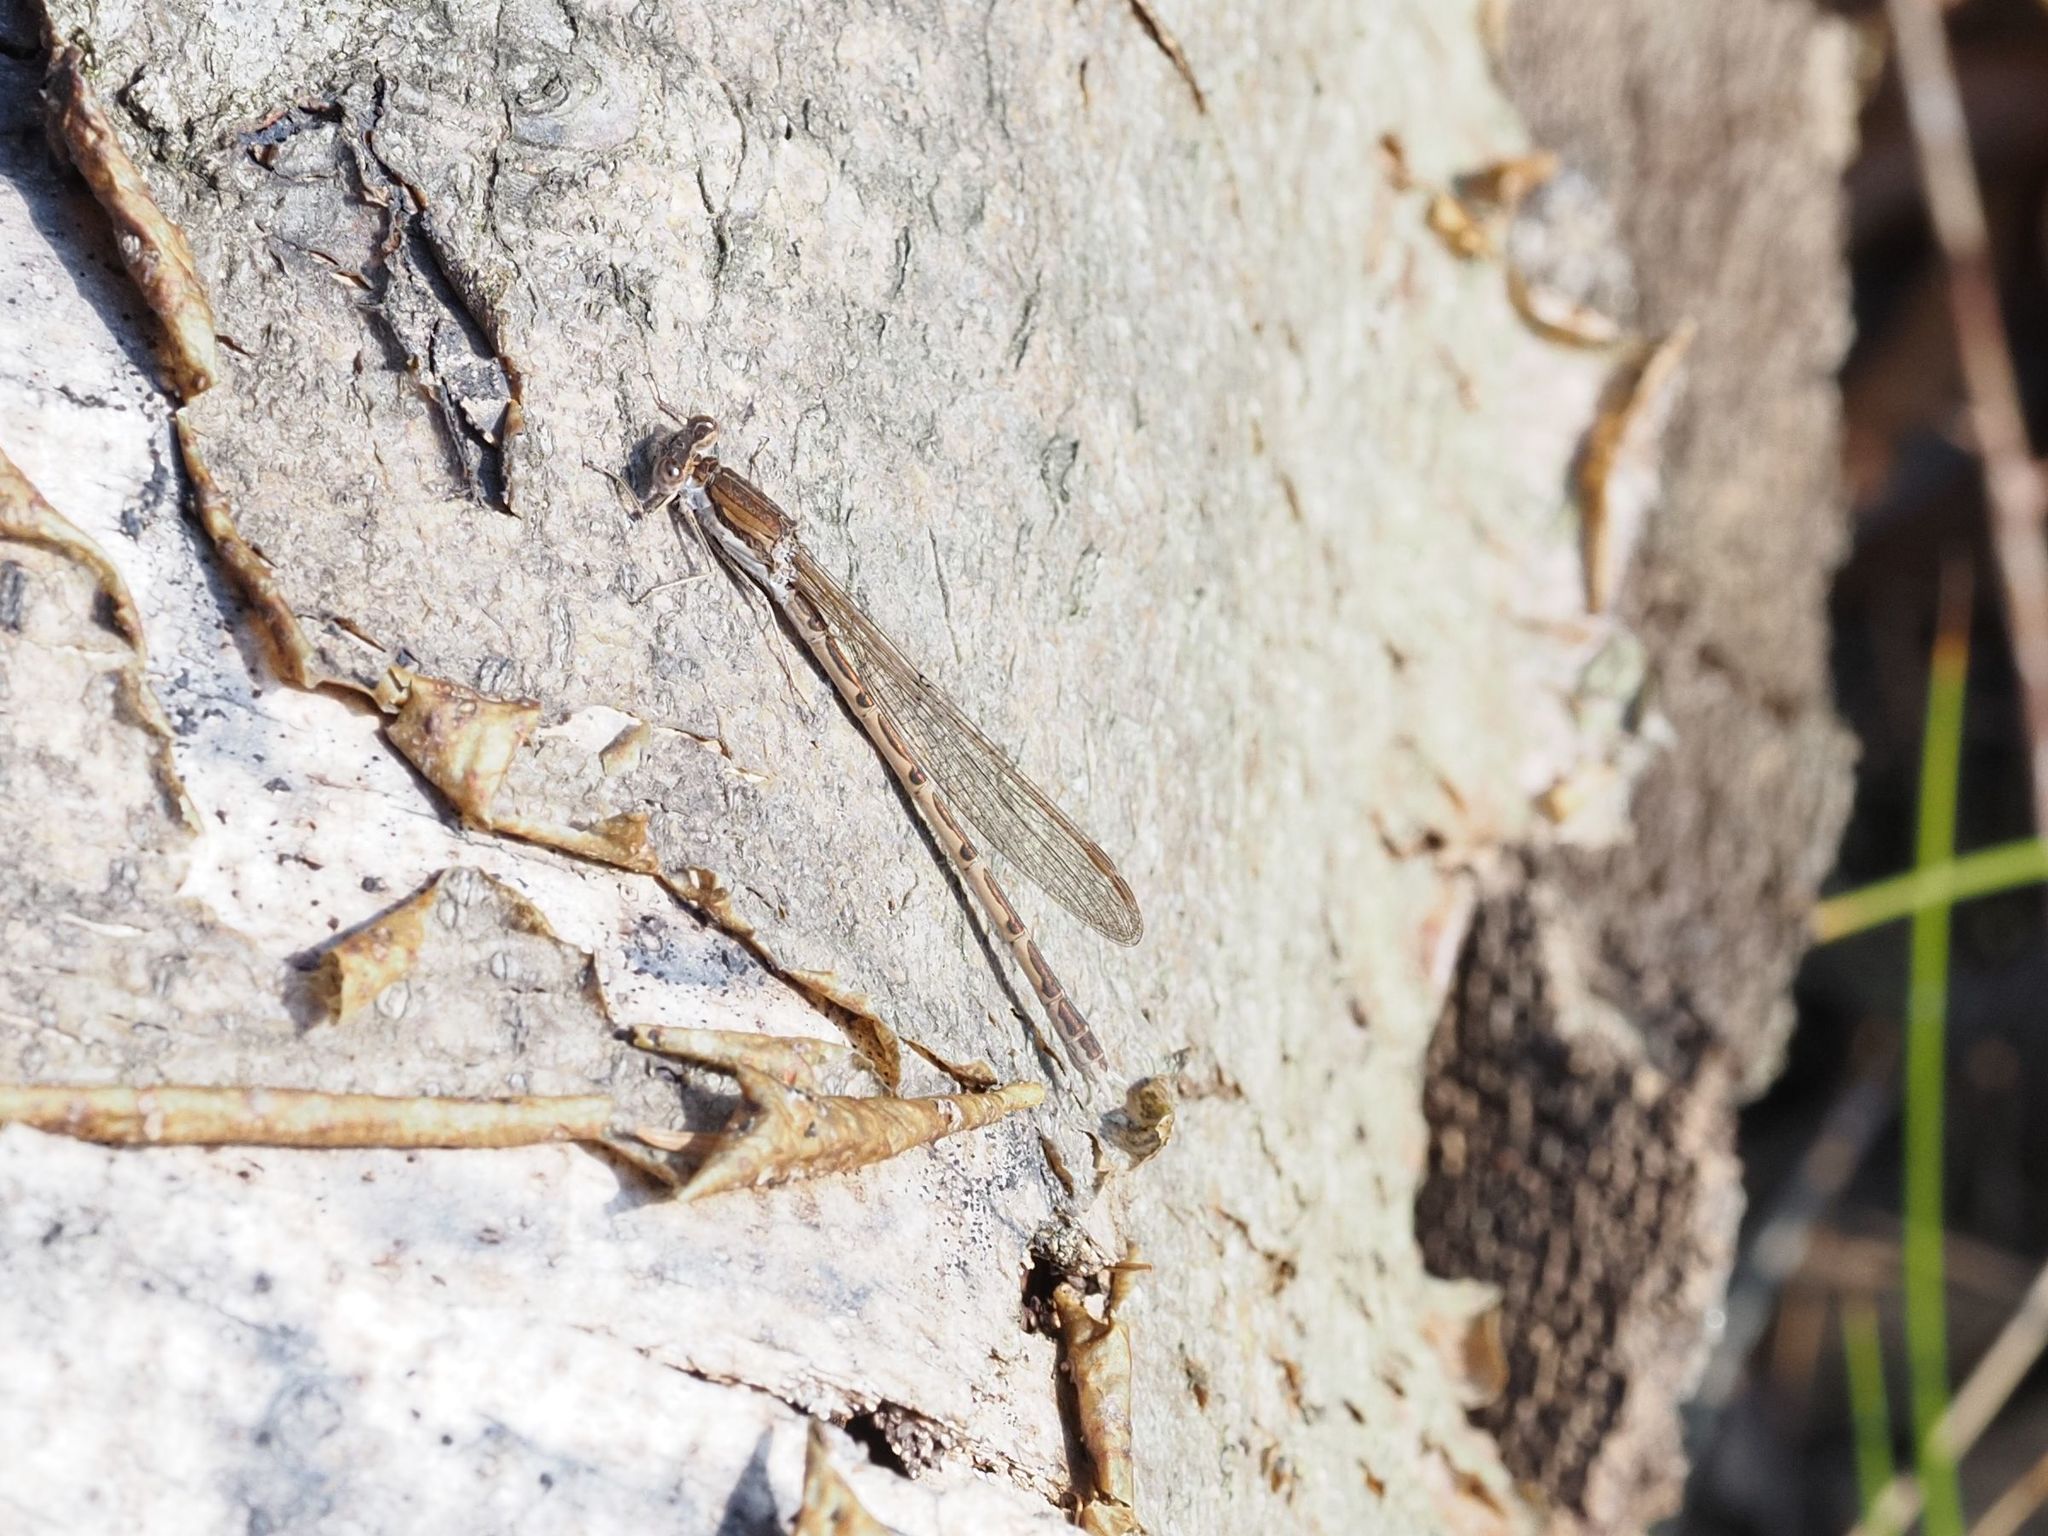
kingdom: Animalia
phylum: Arthropoda
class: Insecta
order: Odonata
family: Lestidae
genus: Sympecma
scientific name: Sympecma fusca
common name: Common winter damsel
